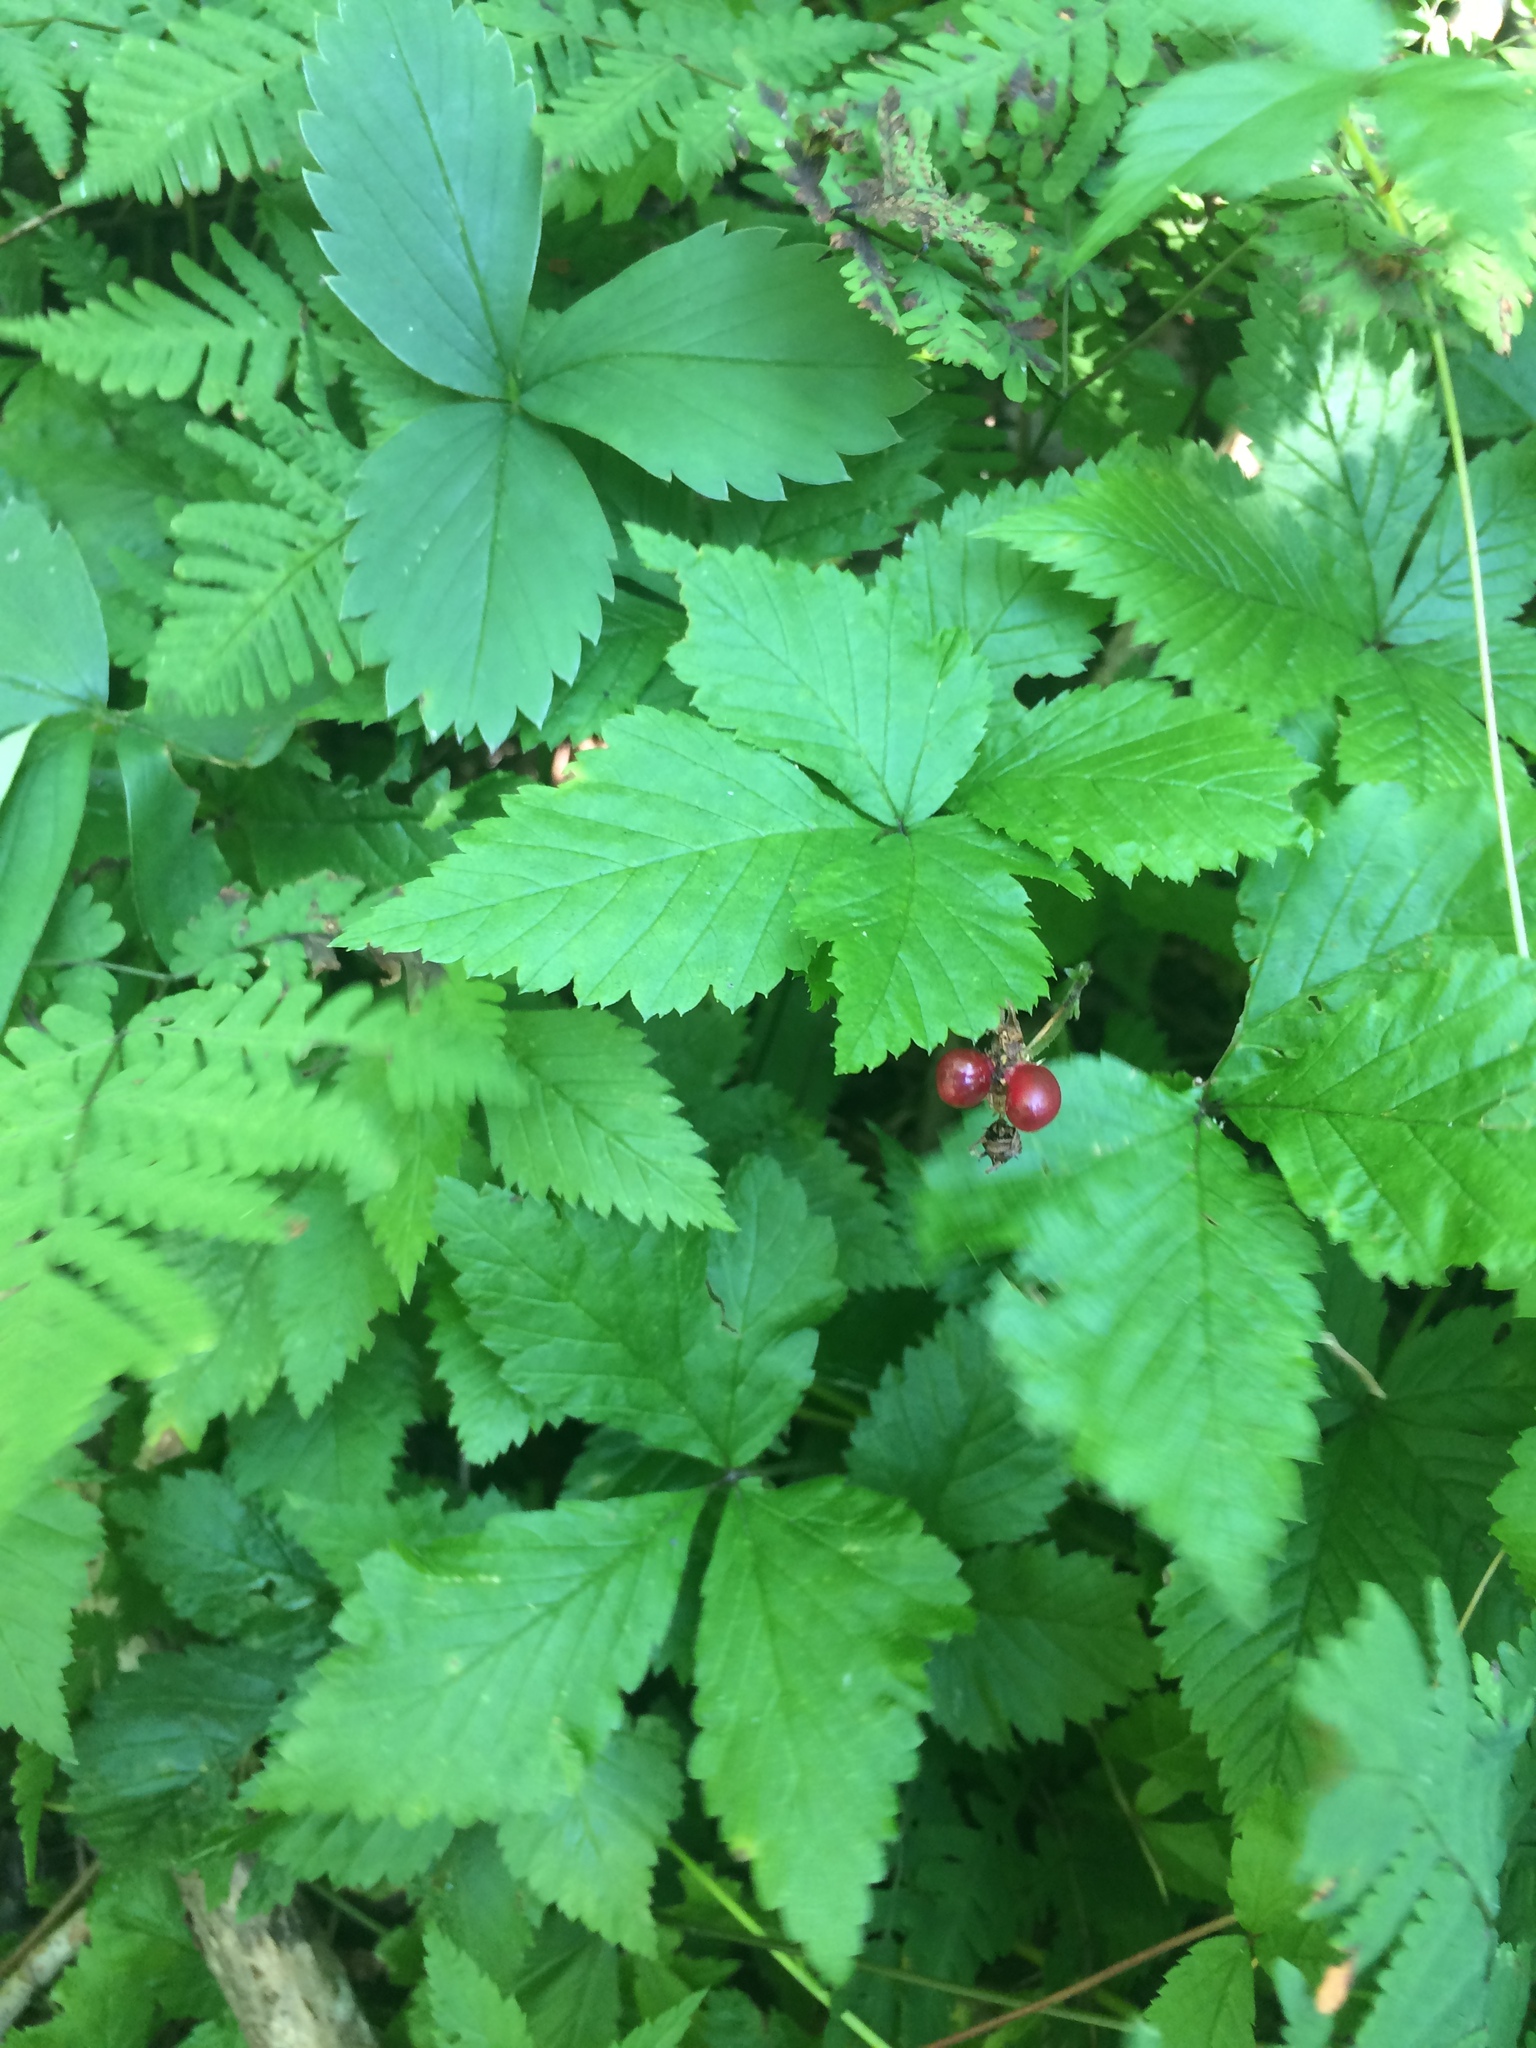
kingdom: Plantae
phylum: Tracheophyta
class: Magnoliopsida
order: Rosales
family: Rosaceae
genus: Rubus
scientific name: Rubus pubescens
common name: Dwarf raspberry
